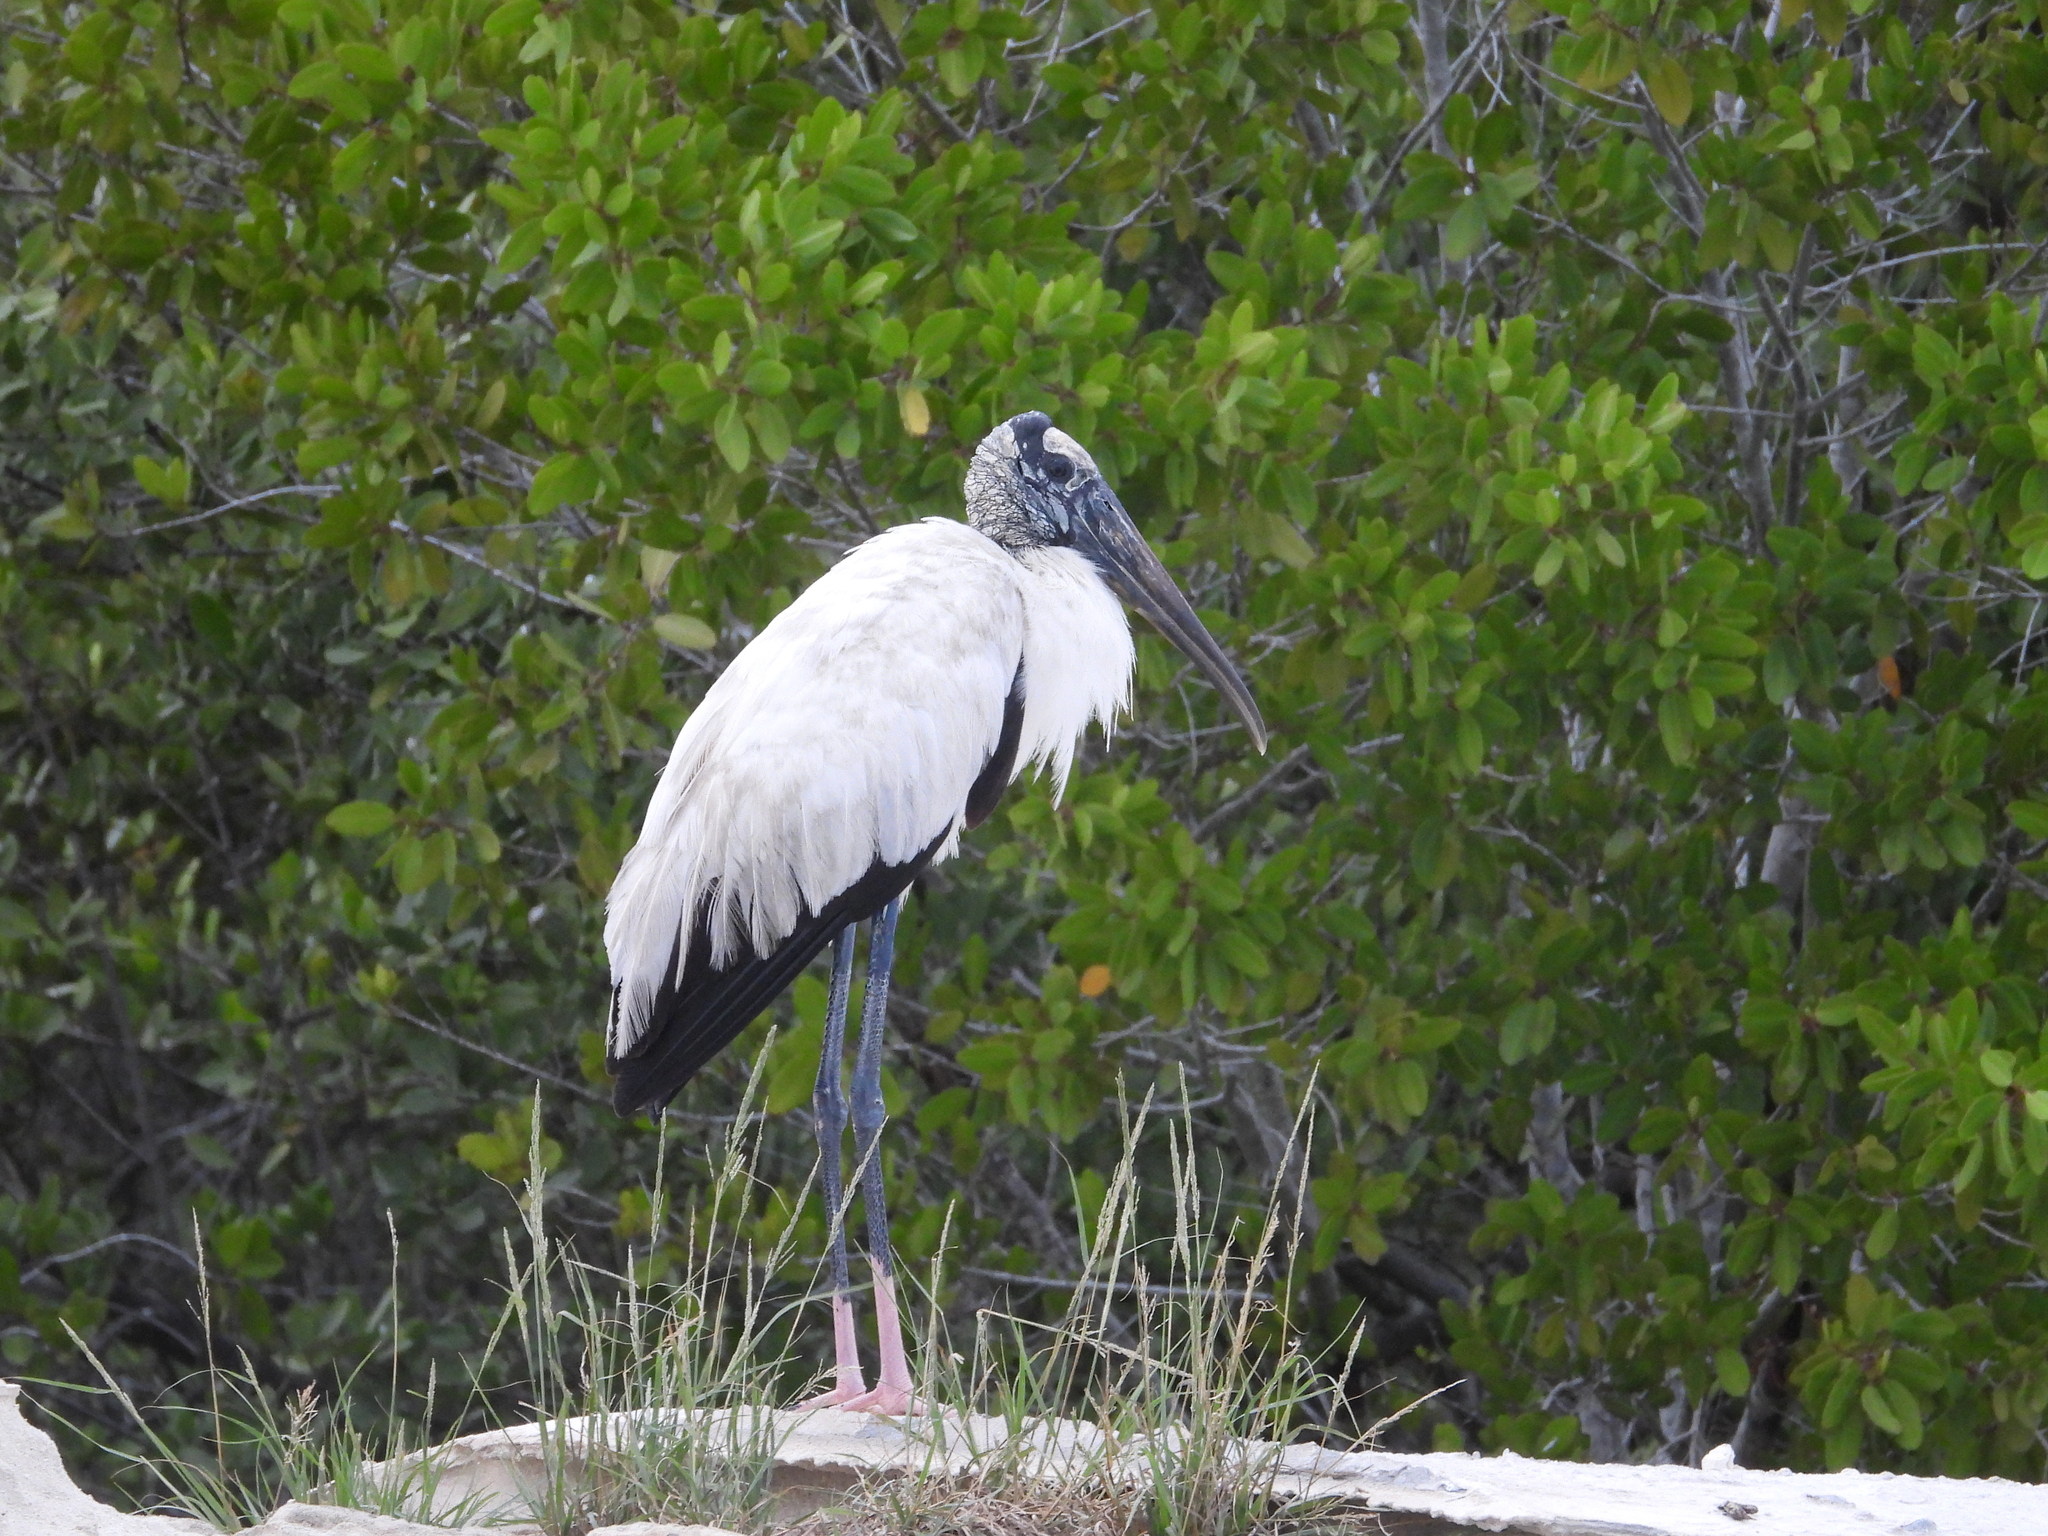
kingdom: Animalia
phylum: Chordata
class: Aves
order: Ciconiiformes
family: Ciconiidae
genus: Mycteria
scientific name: Mycteria americana
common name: Wood stork
